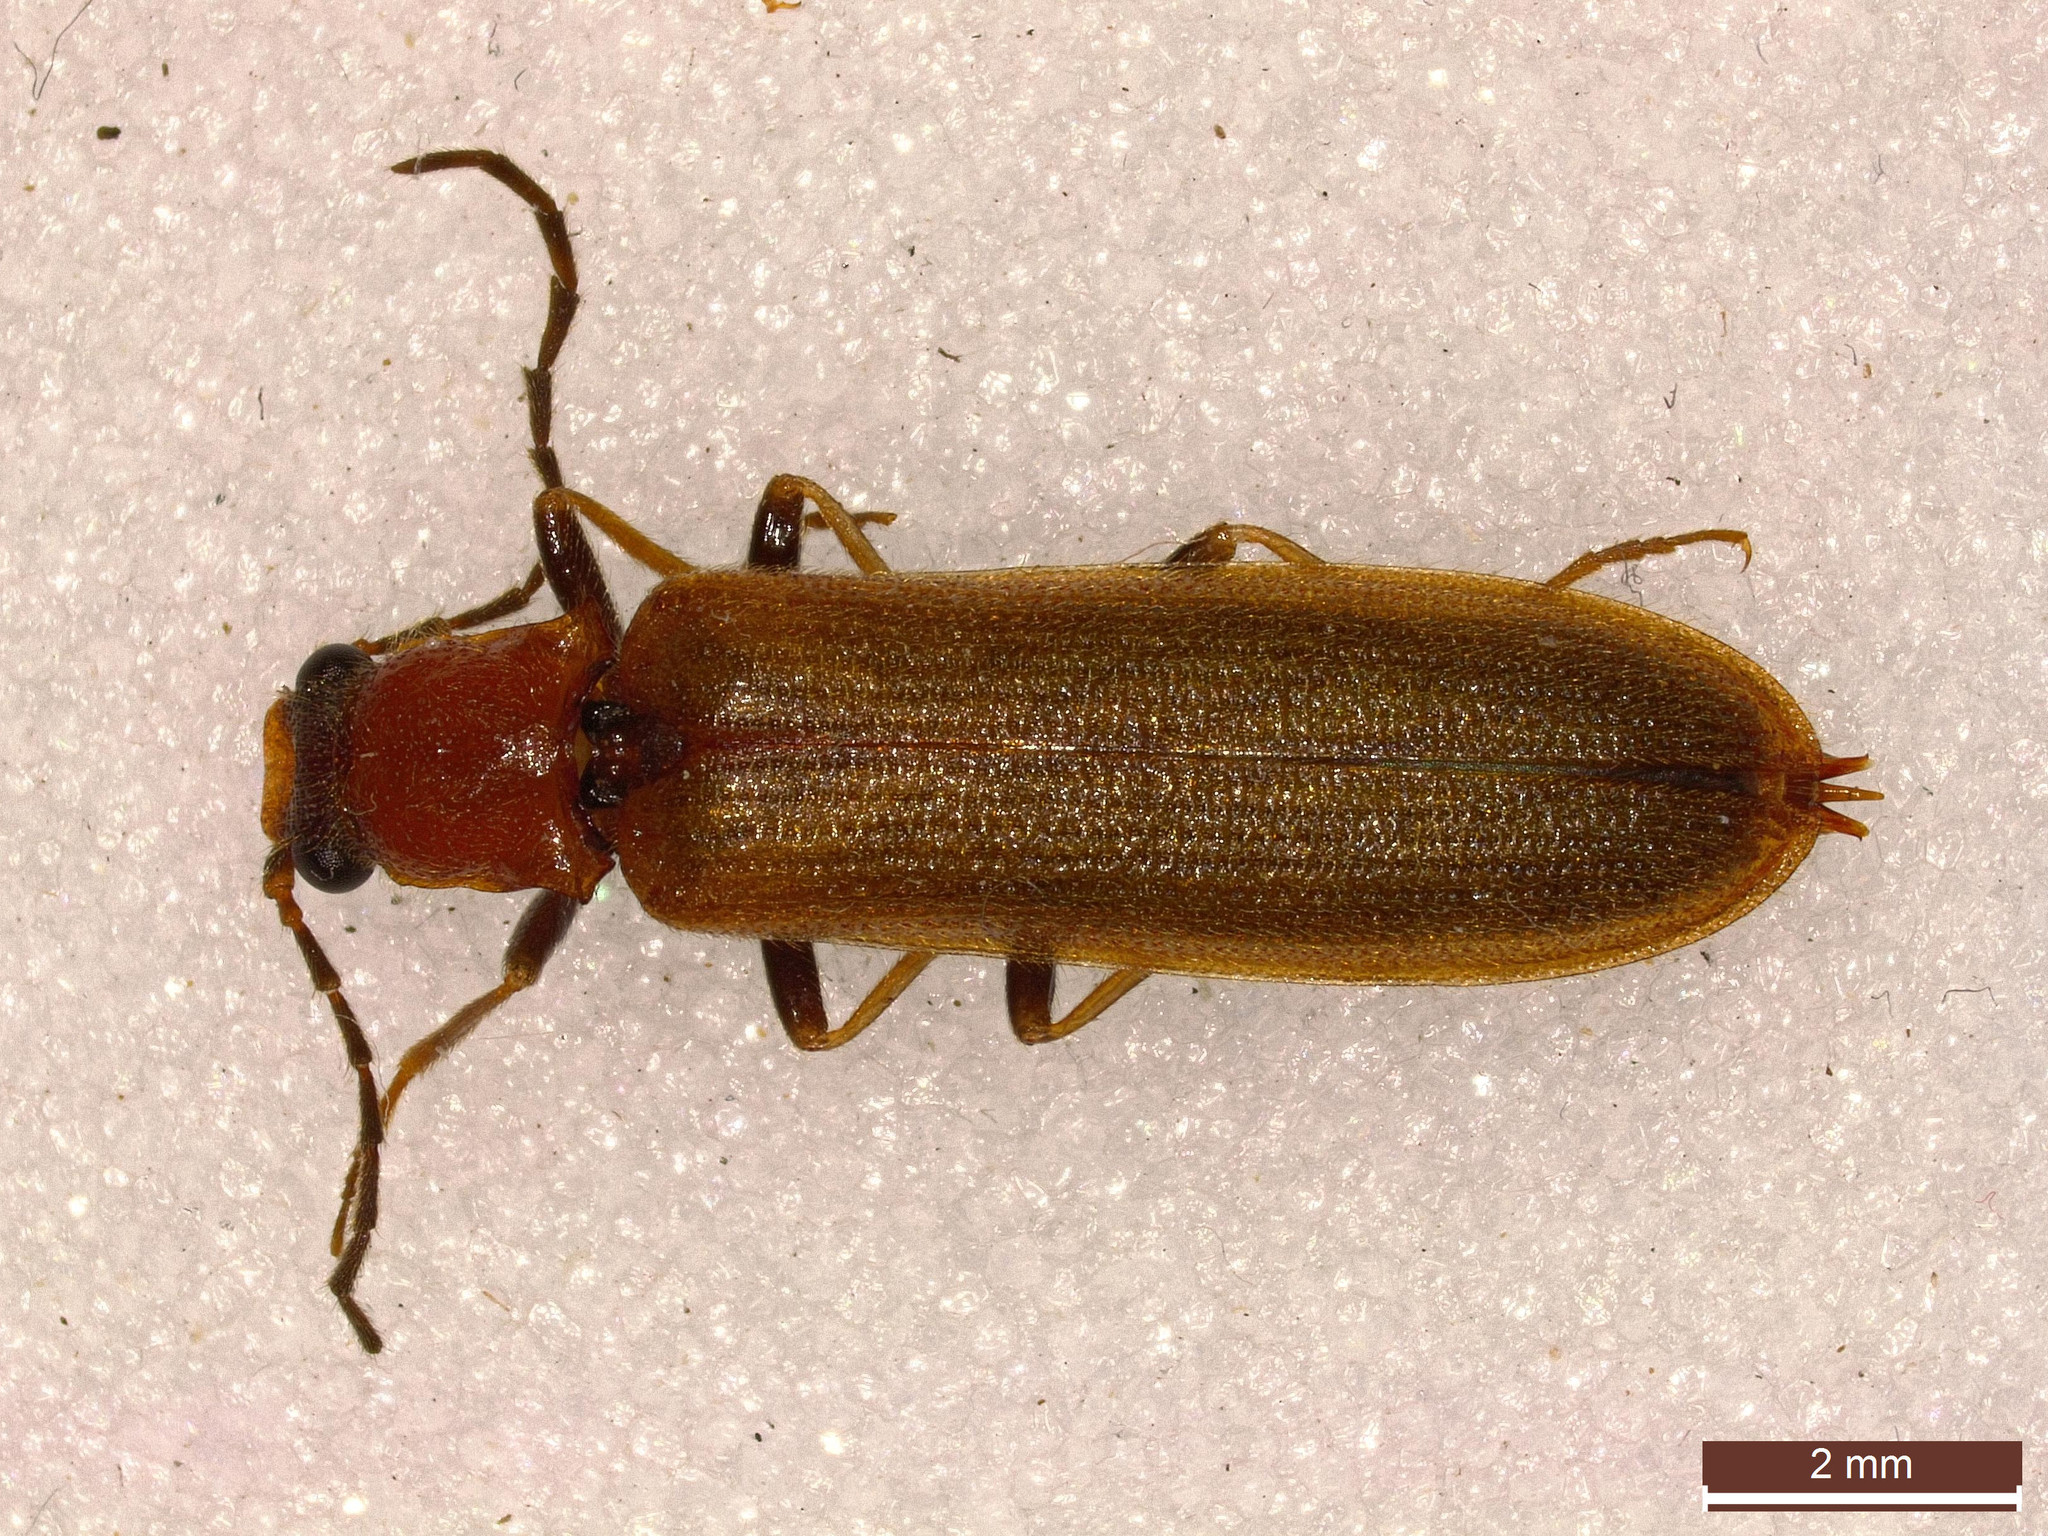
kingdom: Animalia
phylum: Arthropoda
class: Insecta
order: Coleoptera
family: Elateridae
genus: Denticollis
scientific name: Denticollis linearis
